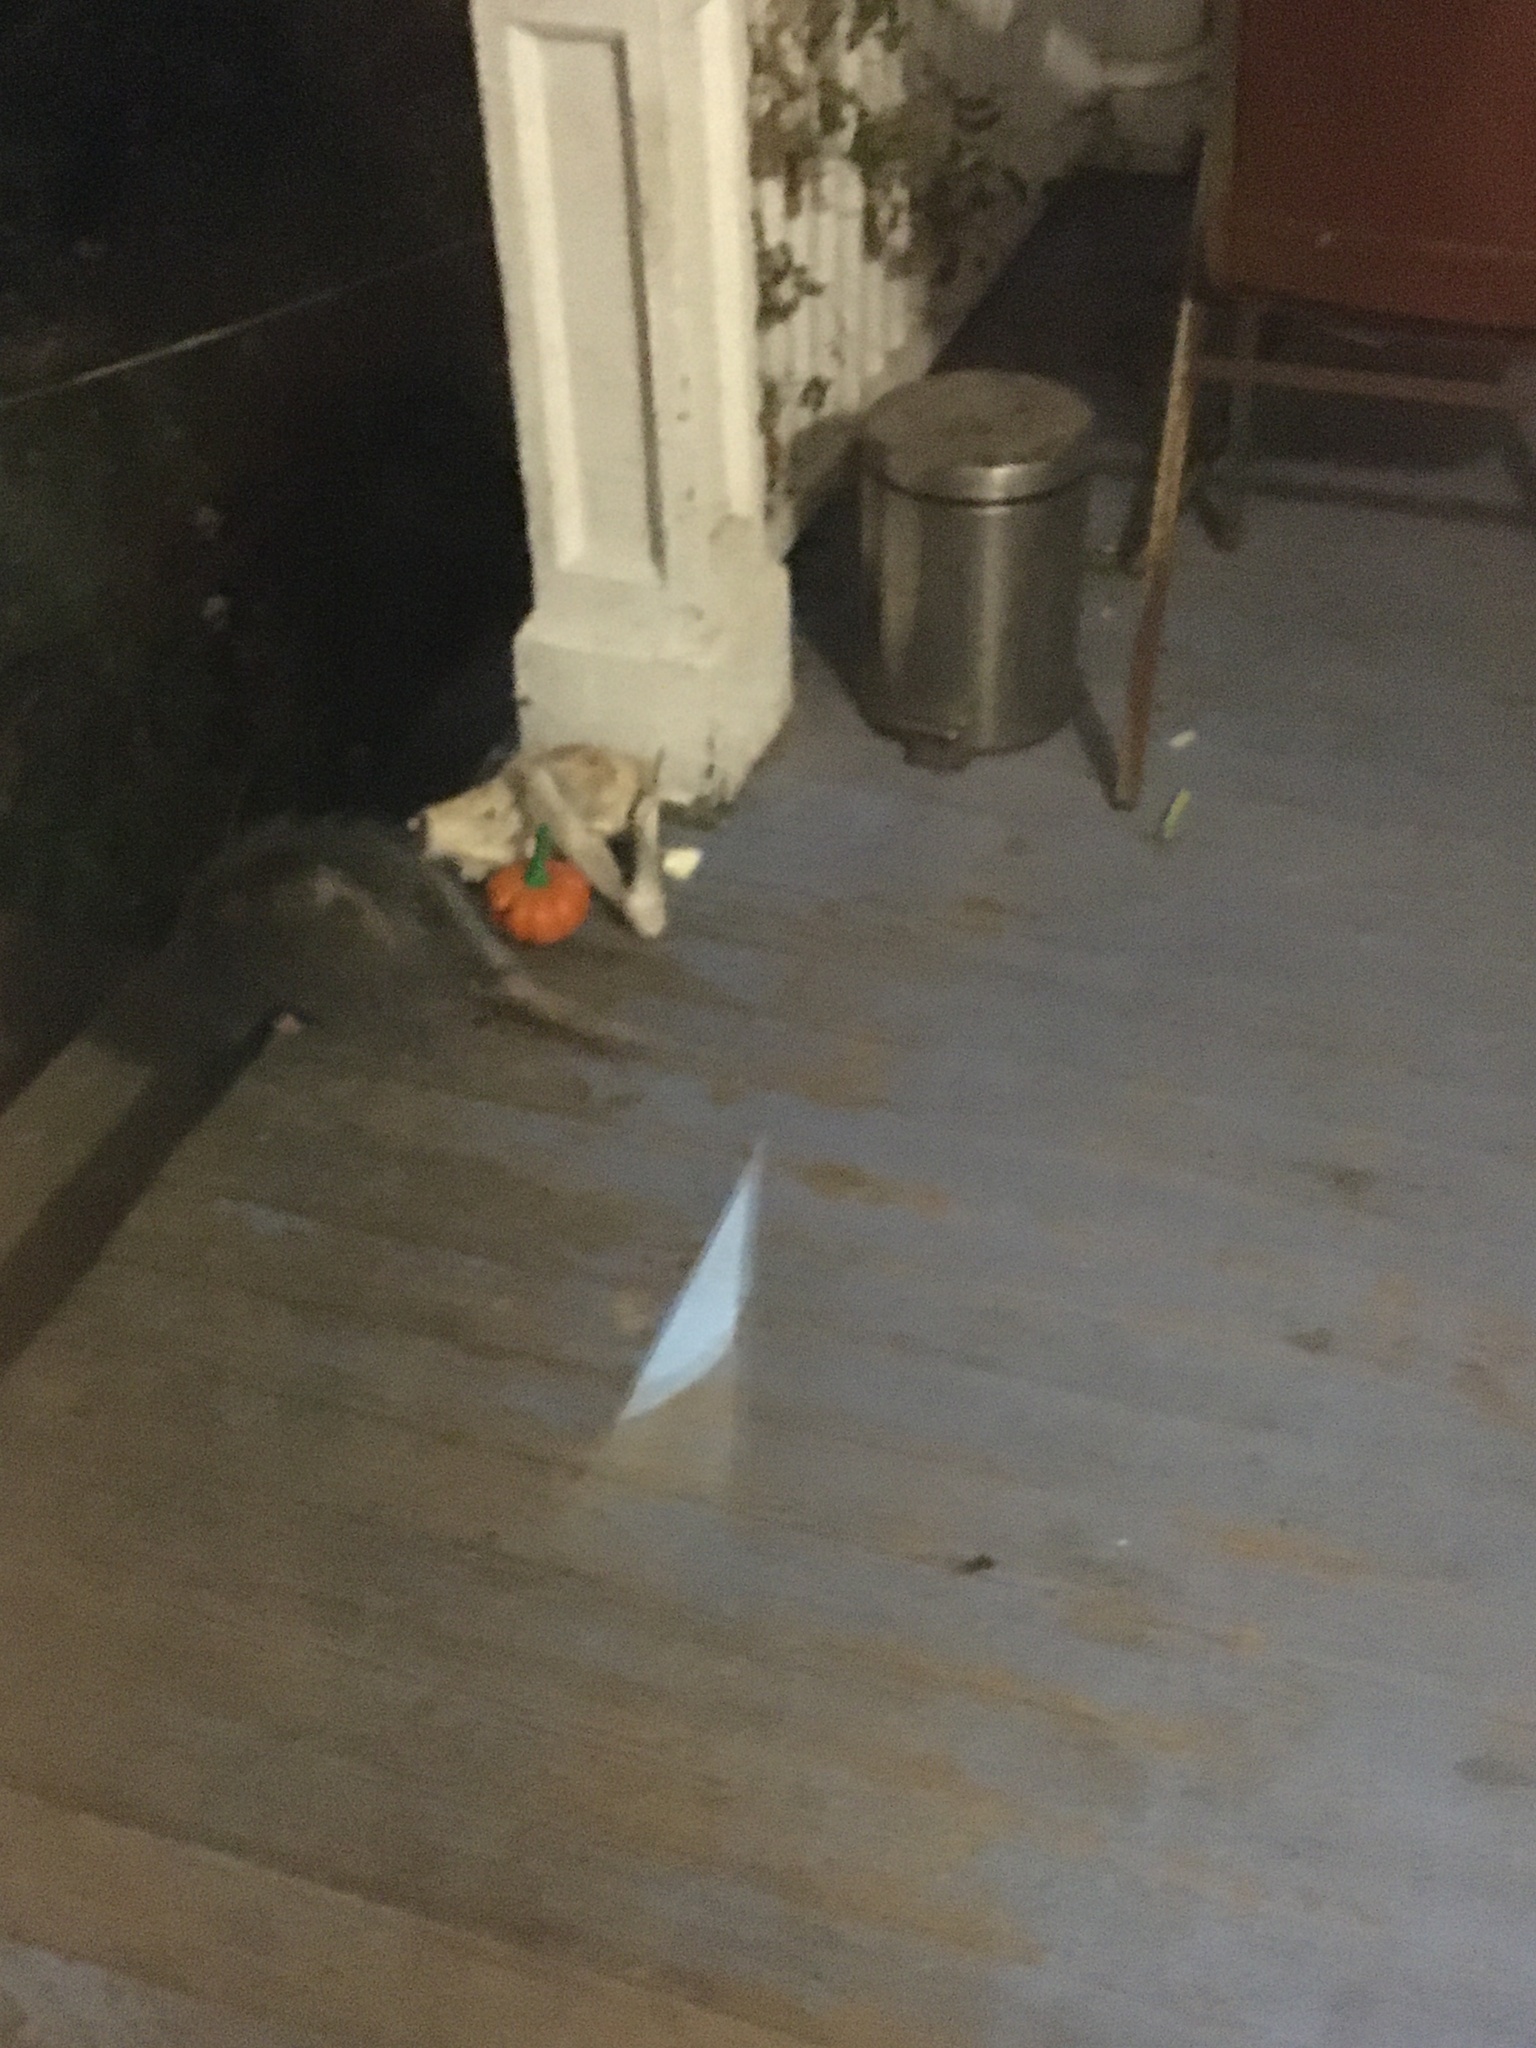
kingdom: Animalia
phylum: Chordata
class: Mammalia
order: Didelphimorphia
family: Didelphidae
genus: Didelphis
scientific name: Didelphis virginiana
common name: Virginia opossum
